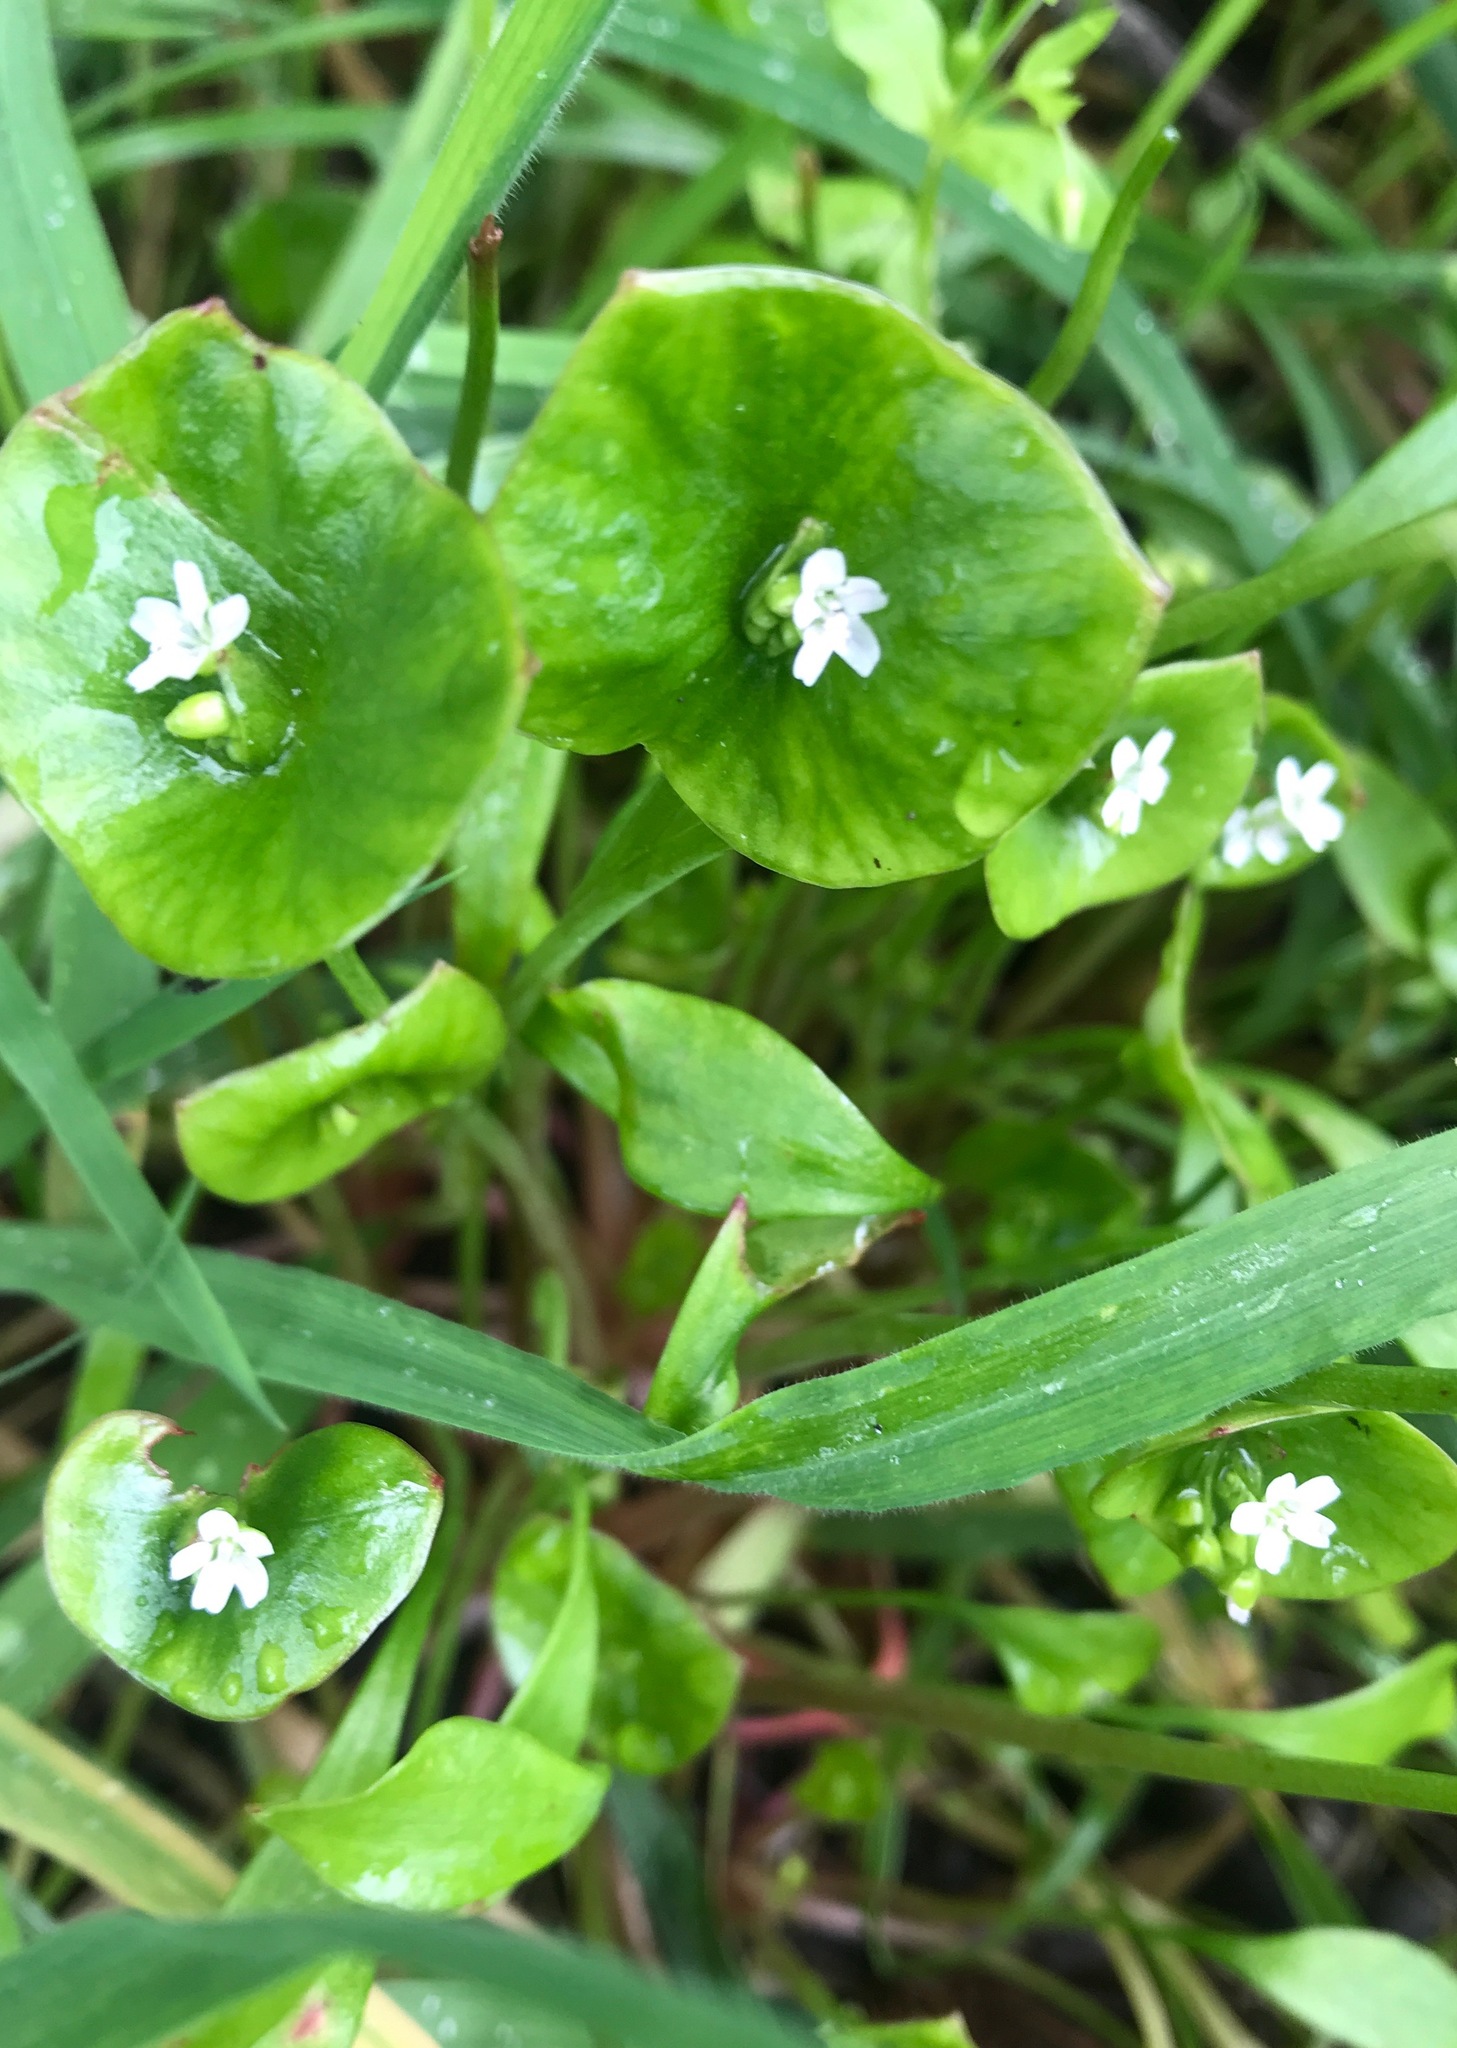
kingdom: Plantae
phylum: Tracheophyta
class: Magnoliopsida
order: Caryophyllales
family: Montiaceae
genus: Claytonia
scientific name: Claytonia perfoliata
